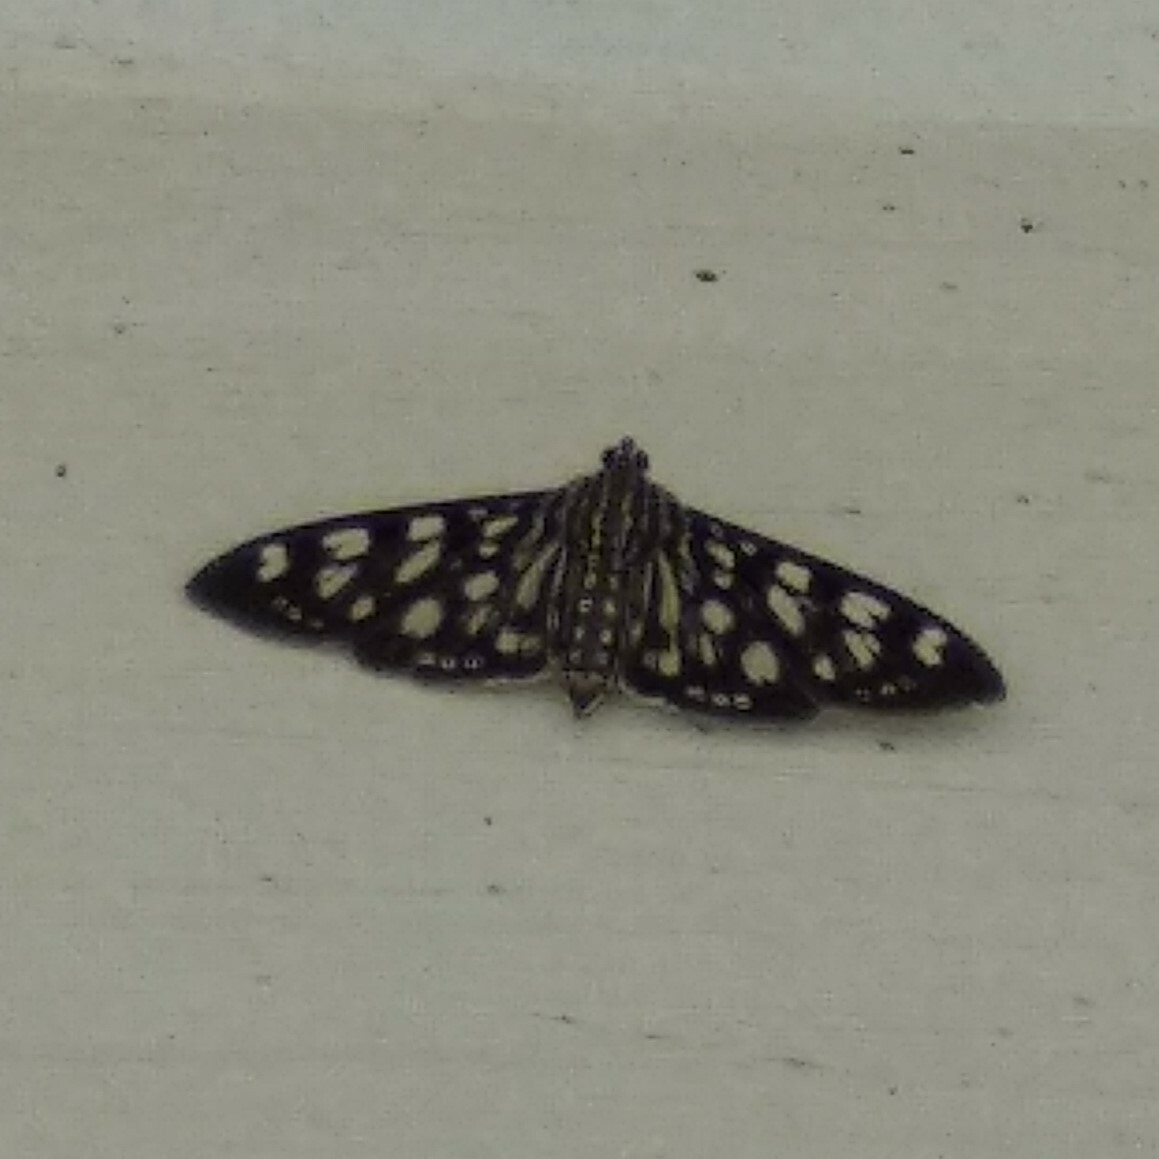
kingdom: Animalia
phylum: Arthropoda
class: Insecta
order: Lepidoptera
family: Crambidae
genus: Pygospila
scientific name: Pygospila tyres
